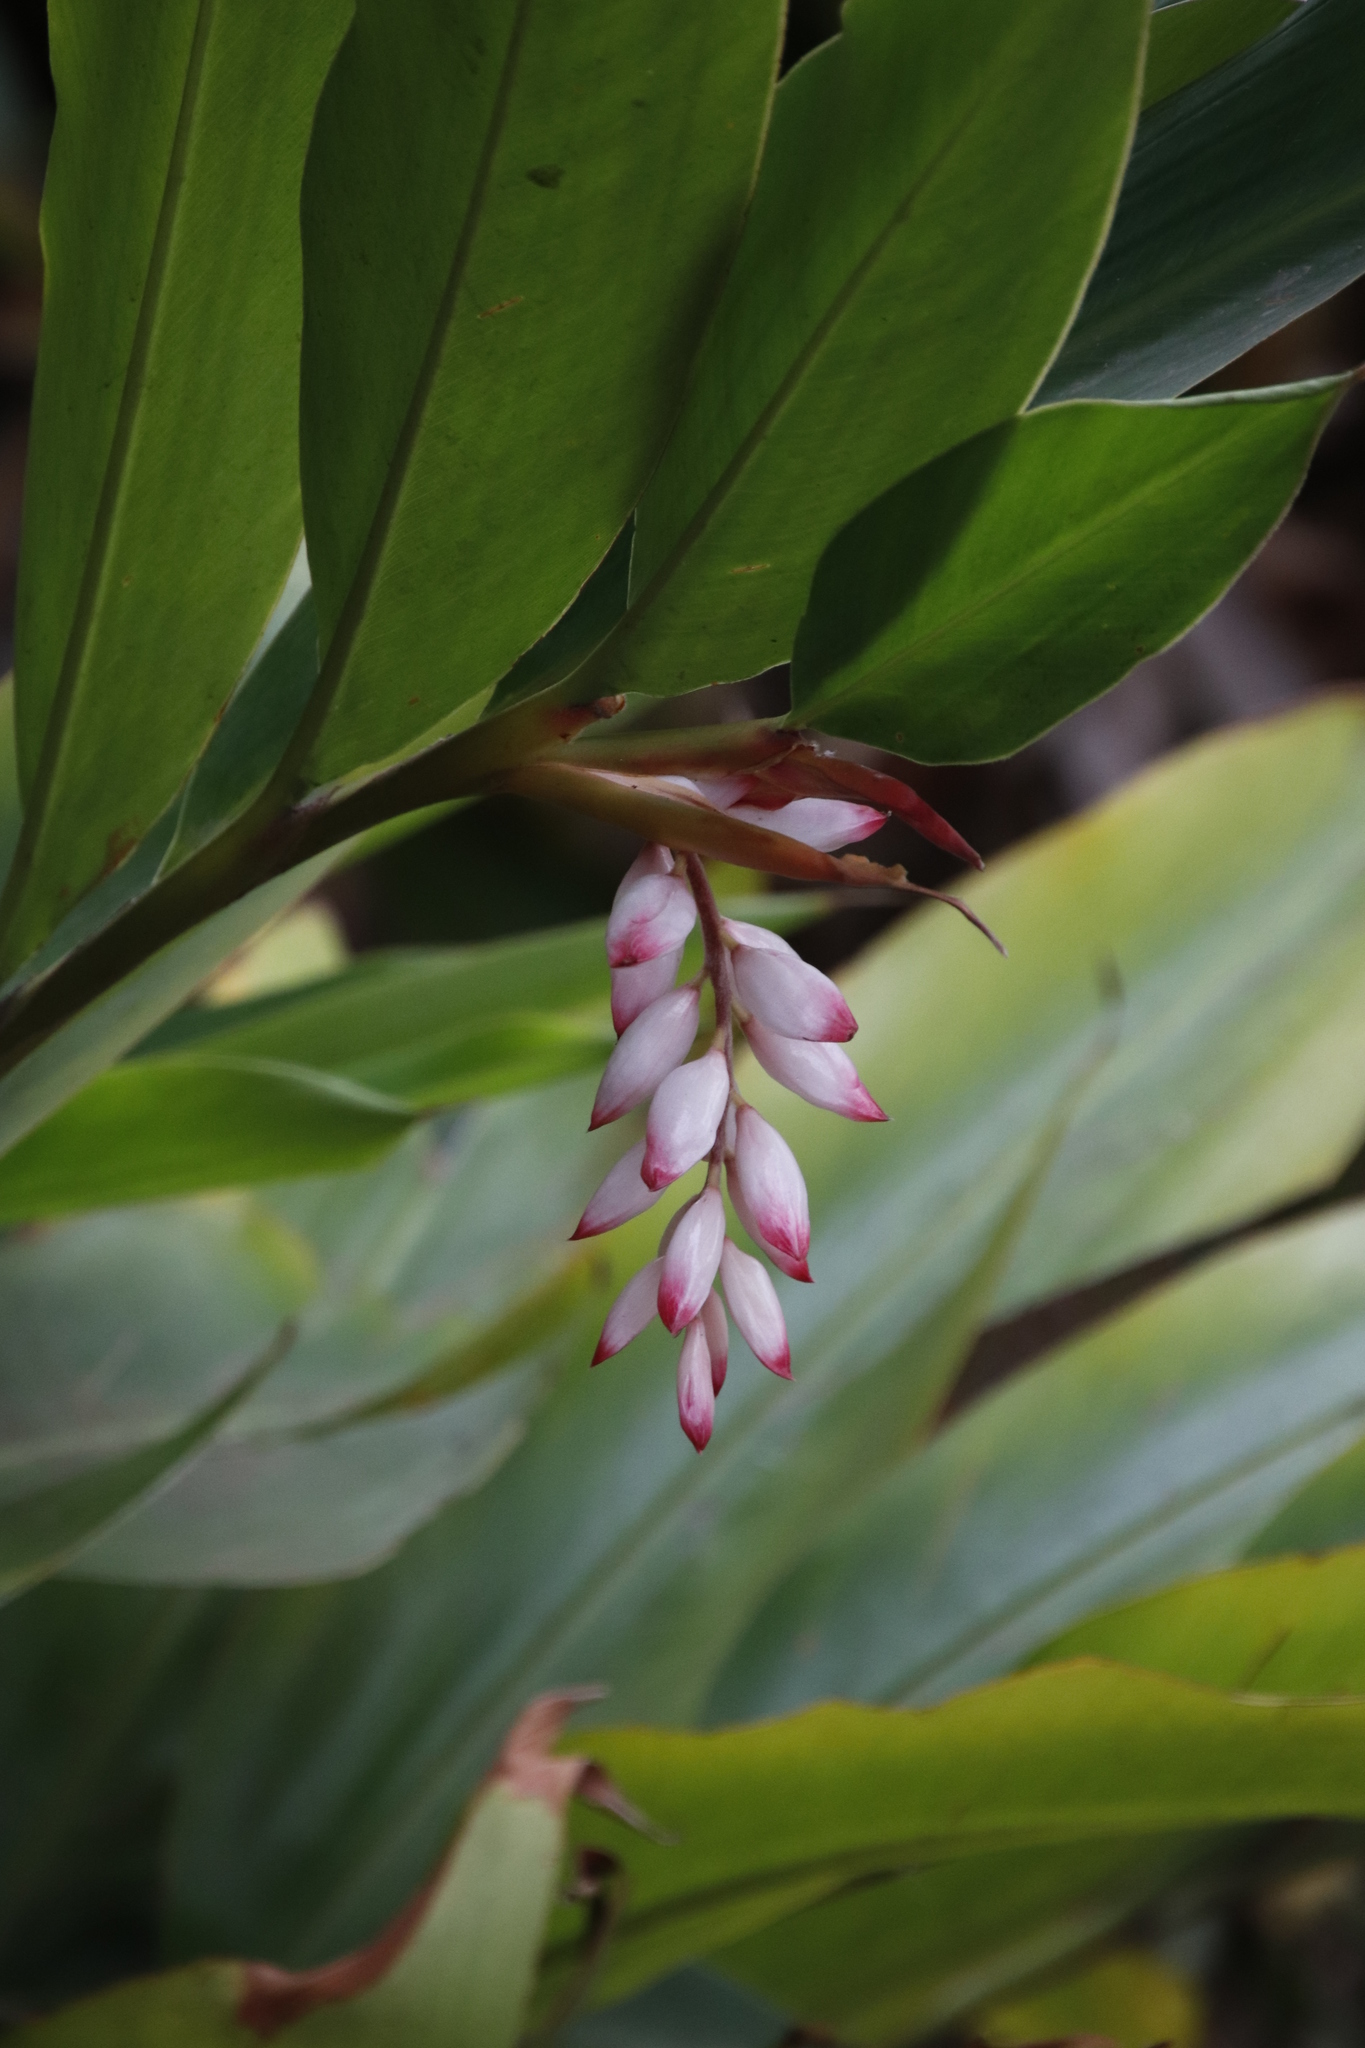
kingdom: Plantae
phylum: Tracheophyta
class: Liliopsida
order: Zingiberales
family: Zingiberaceae
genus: Alpinia
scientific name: Alpinia zerumbet
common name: Shellplant
